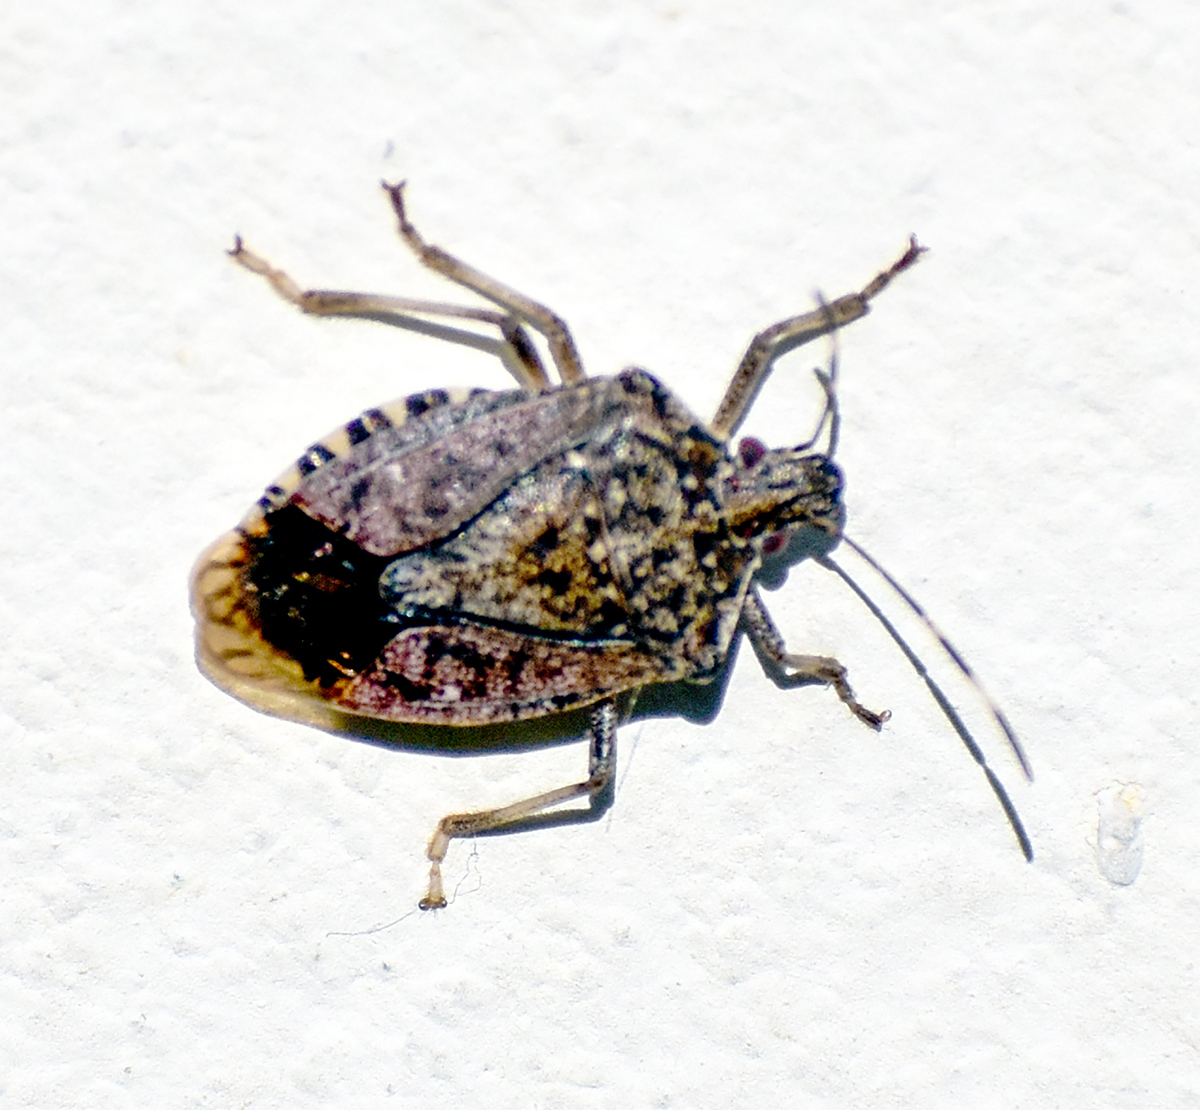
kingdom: Animalia
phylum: Arthropoda
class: Insecta
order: Hemiptera
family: Pentatomidae
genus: Halyomorpha
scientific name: Halyomorpha halys
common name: Brown marmorated stink bug
